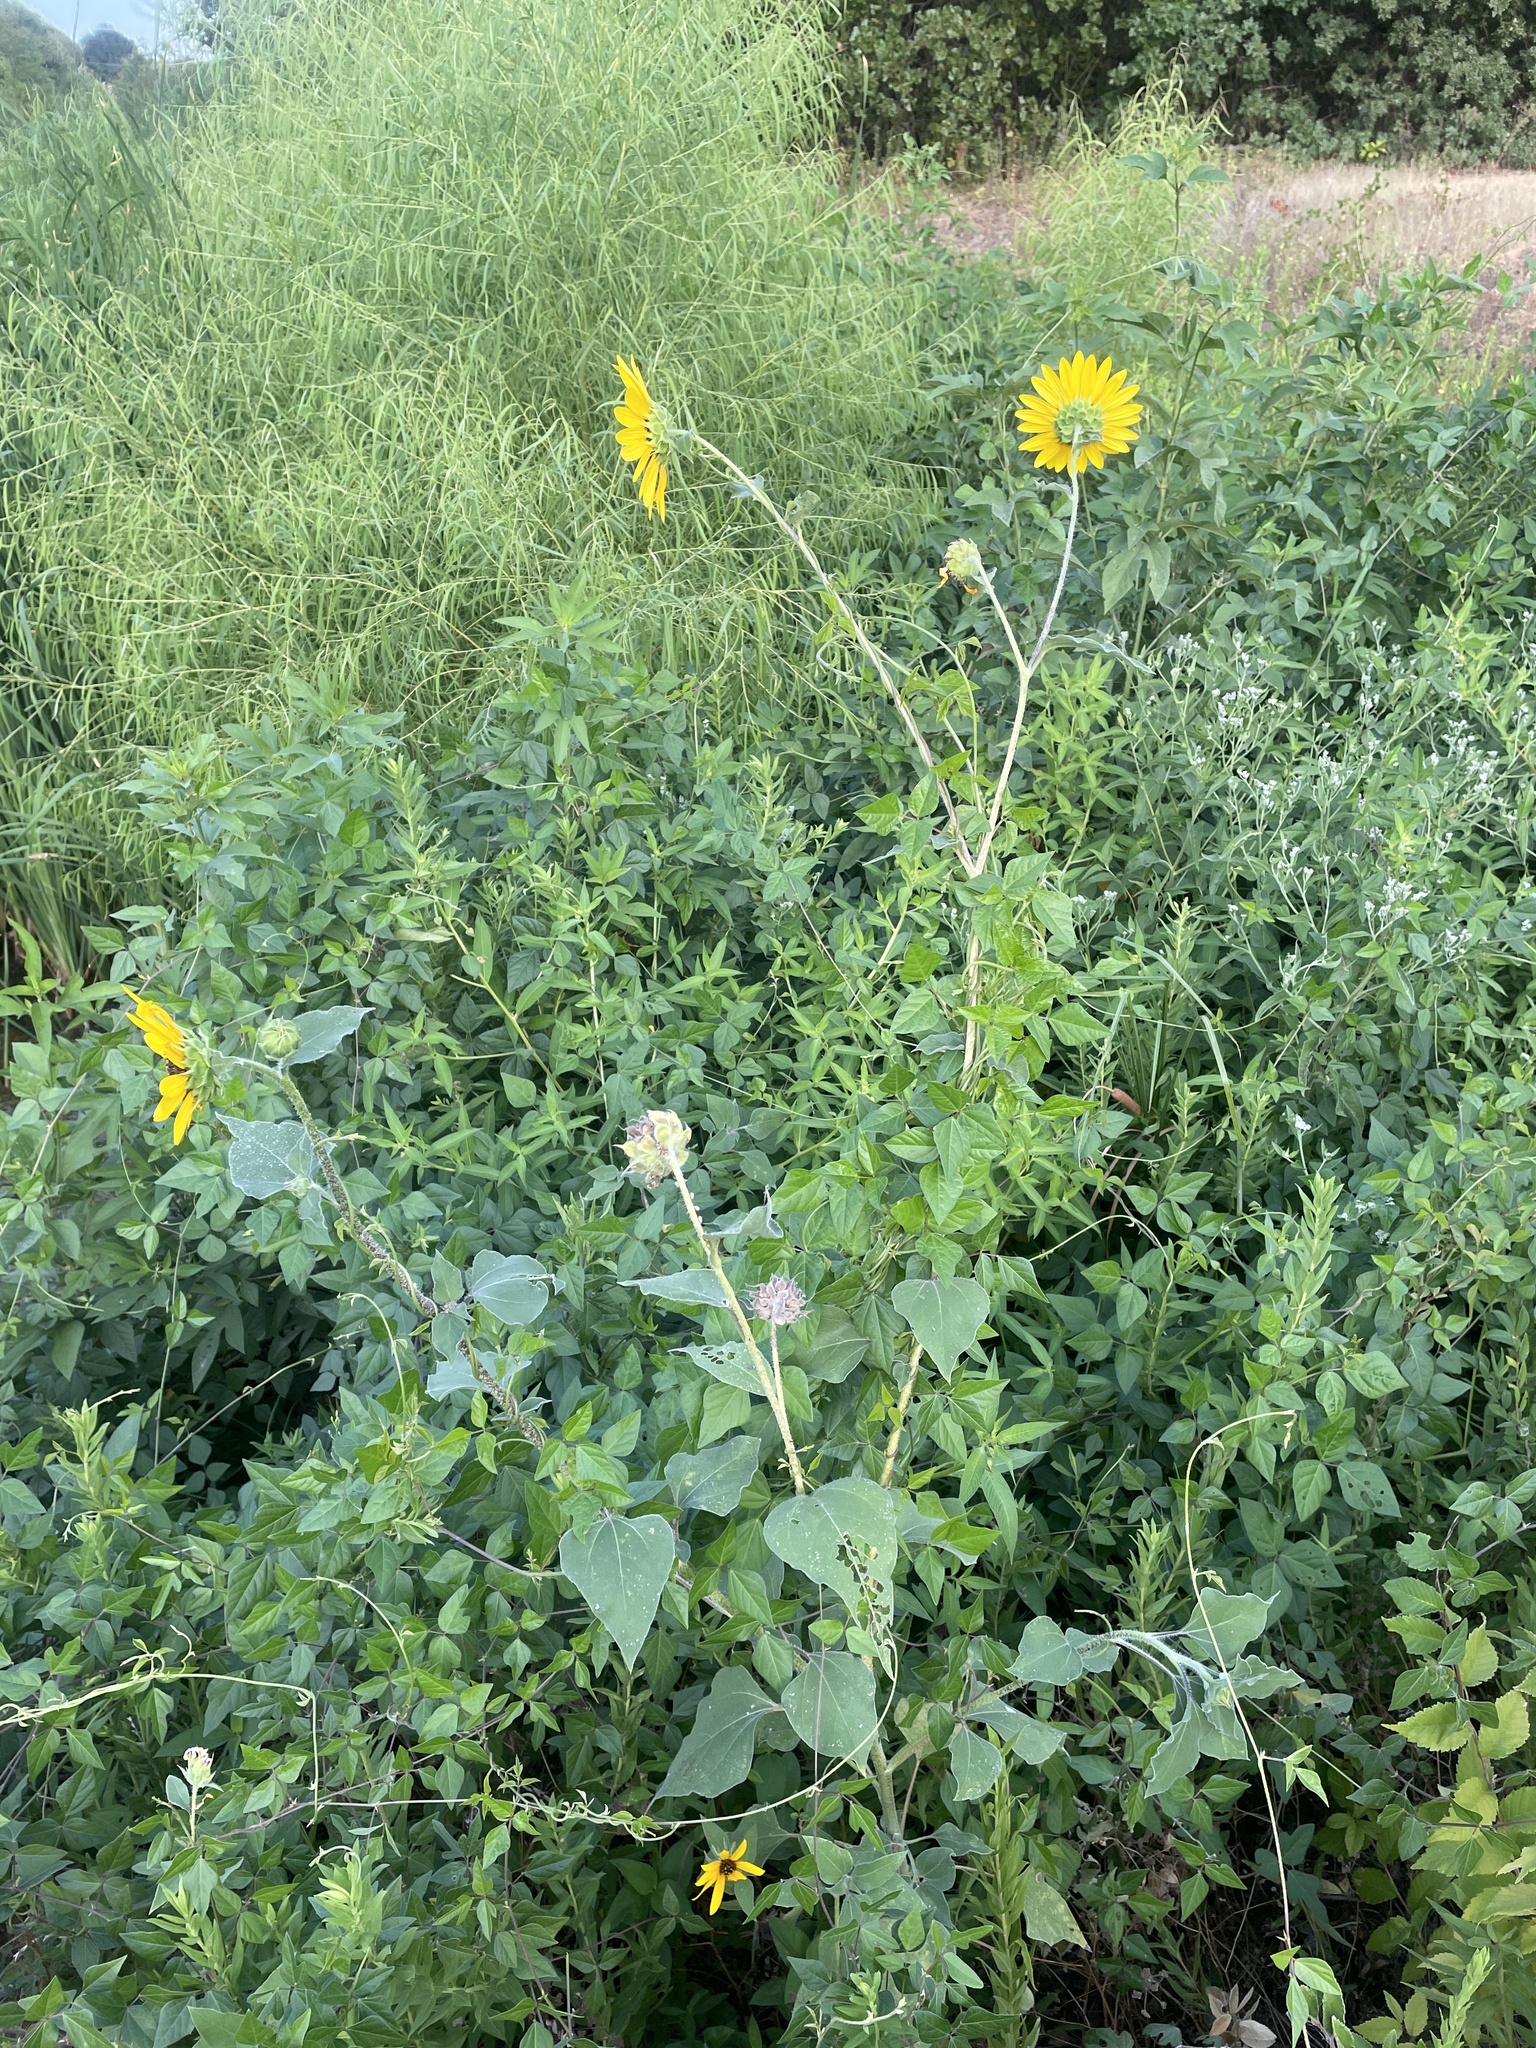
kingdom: Plantae
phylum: Tracheophyta
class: Magnoliopsida
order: Asterales
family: Asteraceae
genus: Helianthus
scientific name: Helianthus annuus
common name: Sunflower
